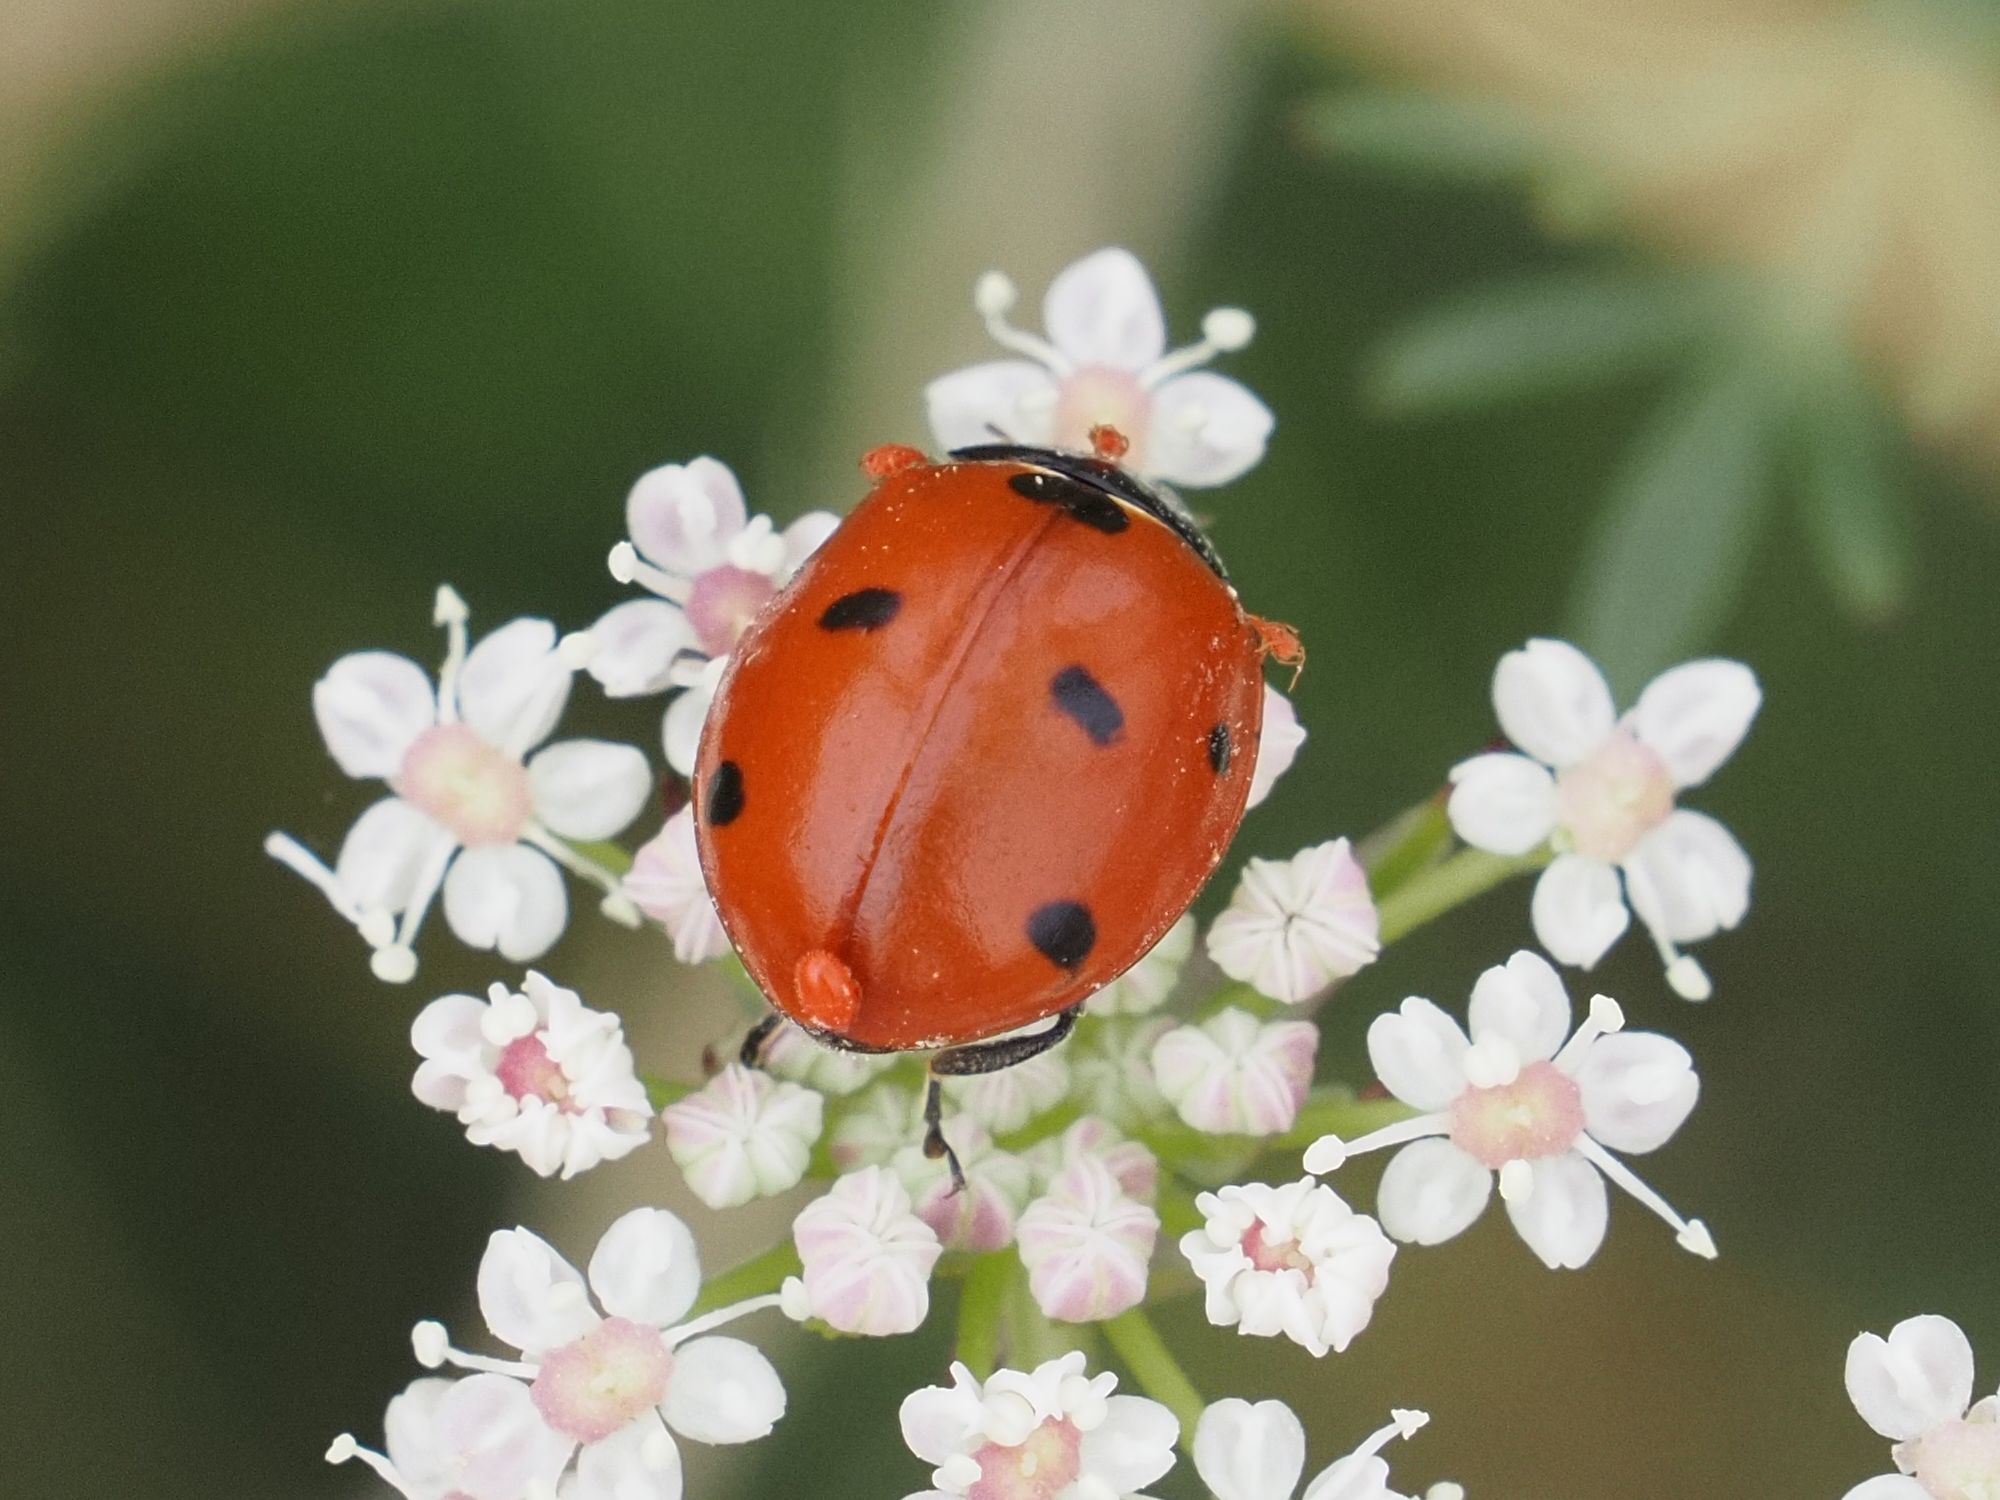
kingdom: Animalia
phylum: Arthropoda
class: Insecta
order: Coleoptera
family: Coccinellidae
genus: Coccinella
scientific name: Coccinella septempunctata
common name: Sevenspotted lady beetle
